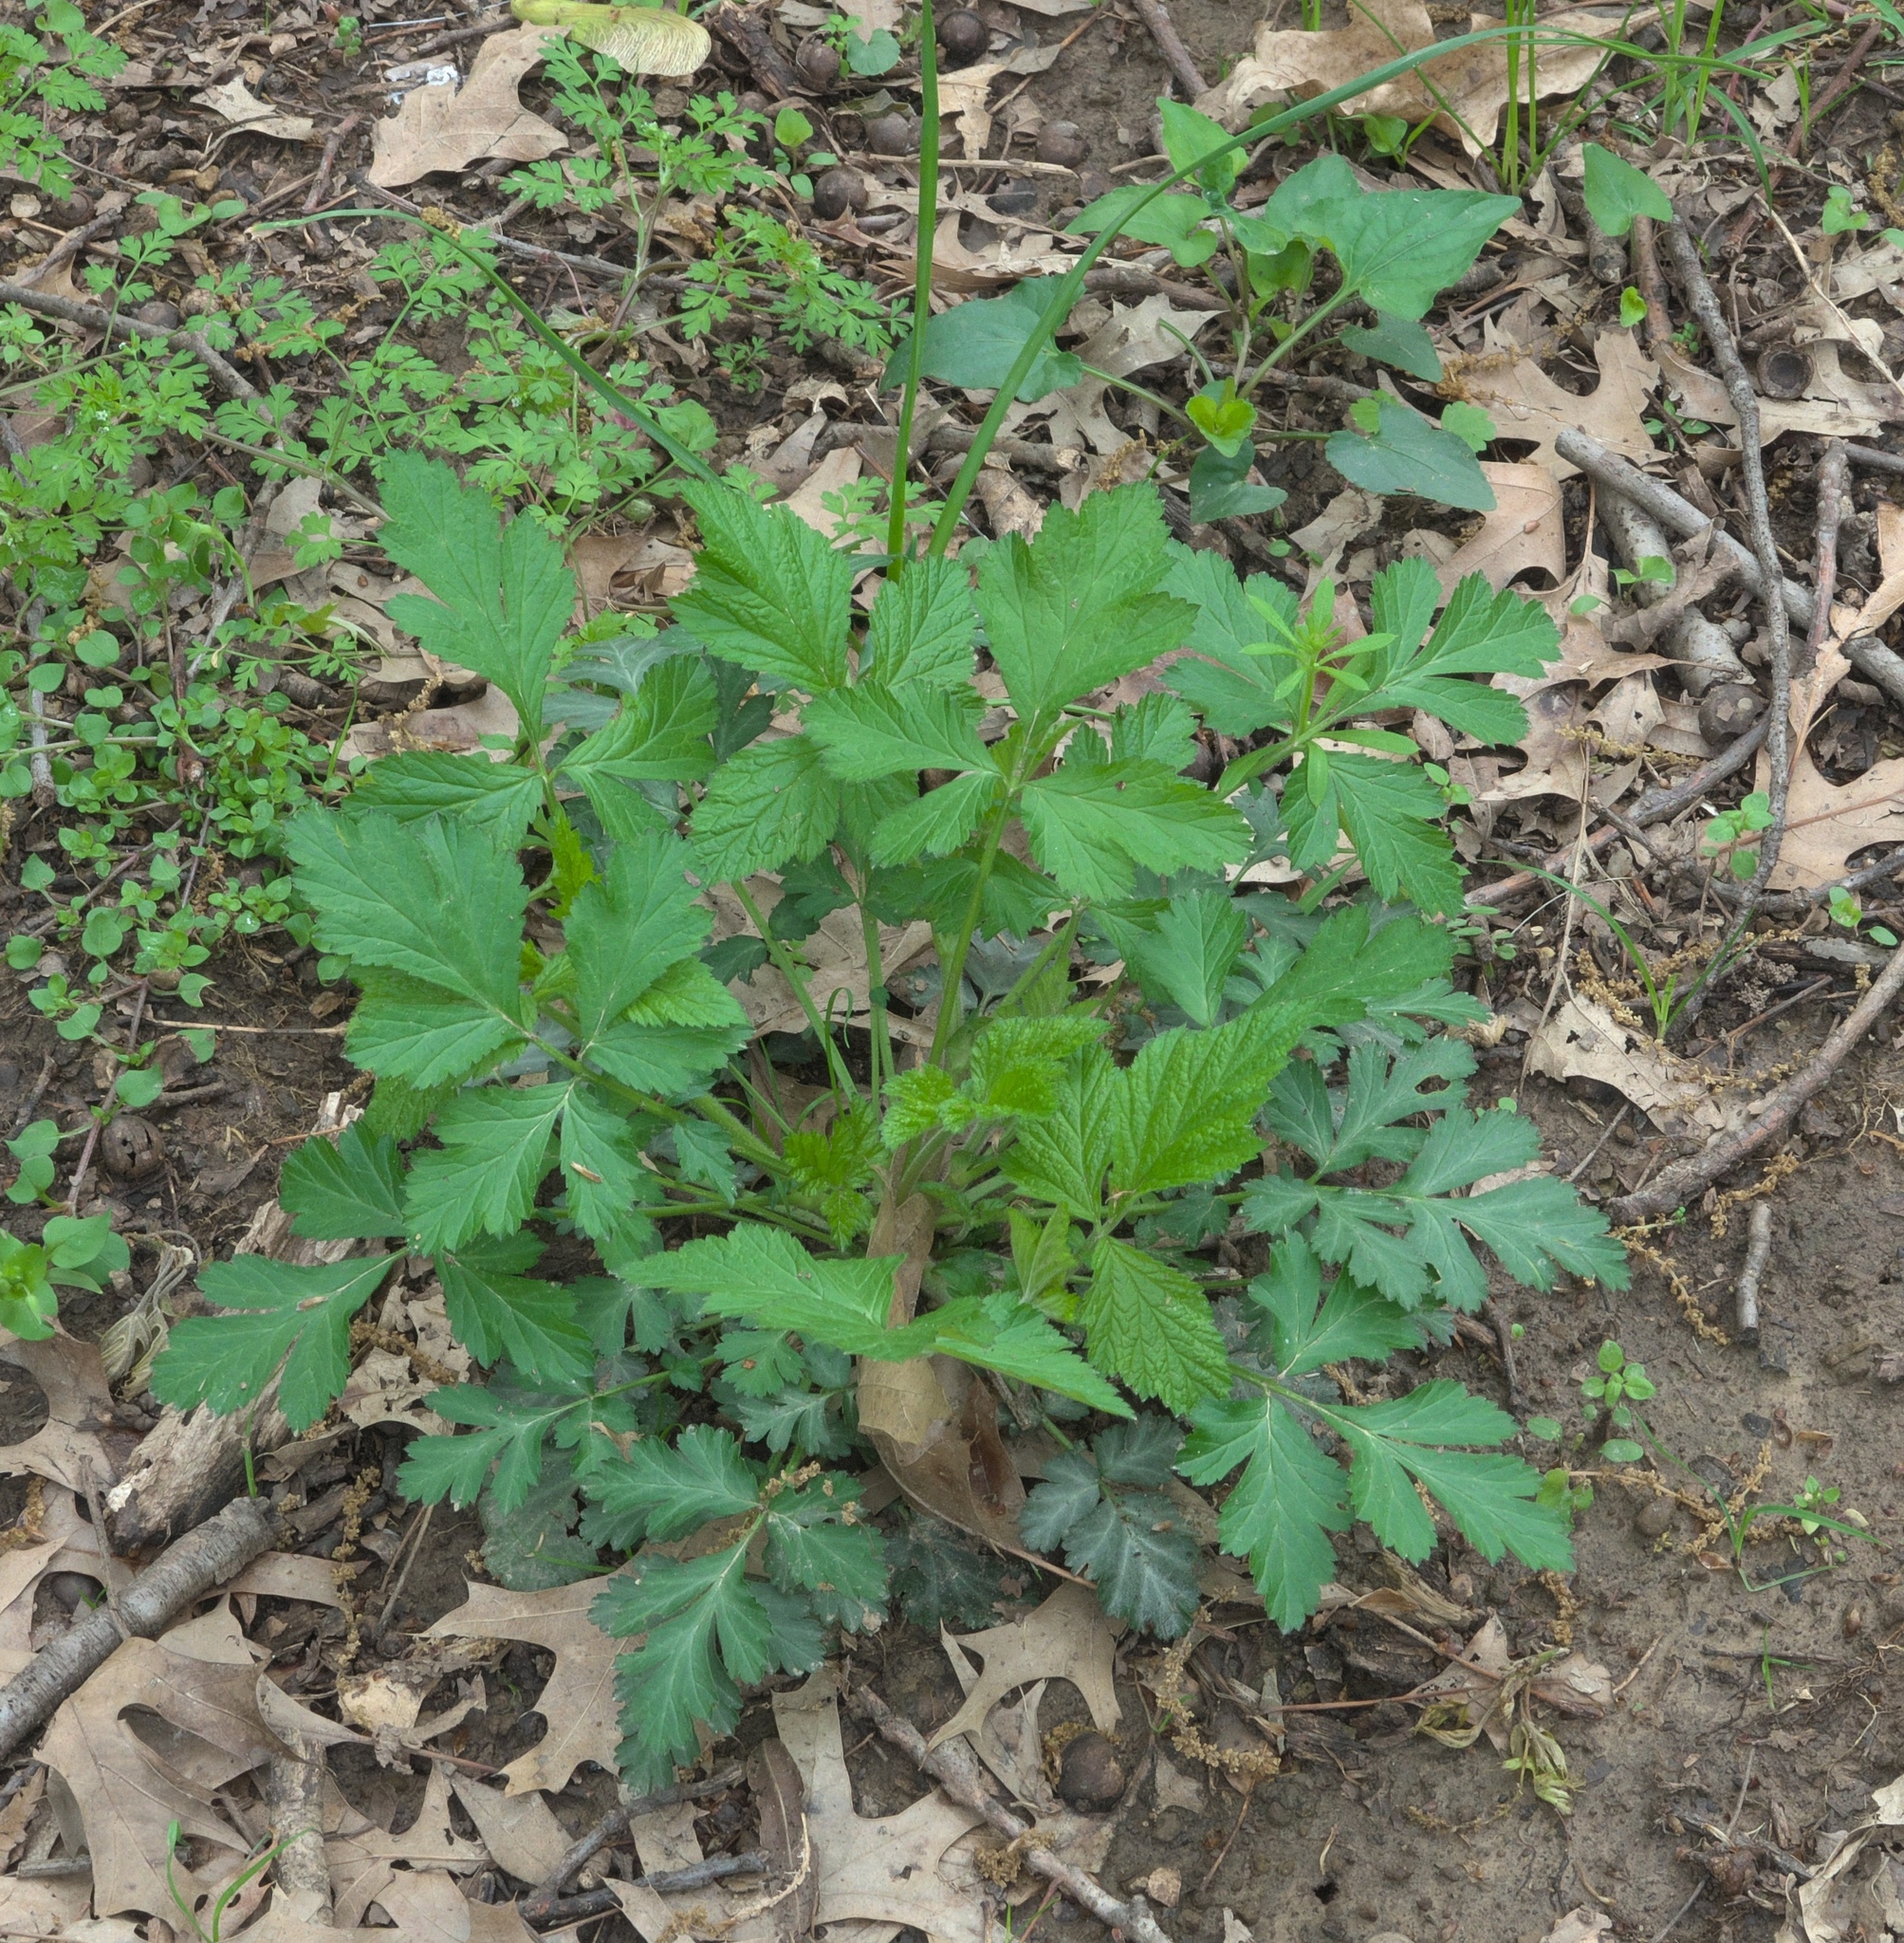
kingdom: Plantae
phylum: Tracheophyta
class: Magnoliopsida
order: Rosales
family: Rosaceae
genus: Geum
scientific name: Geum canadense
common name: White avens
